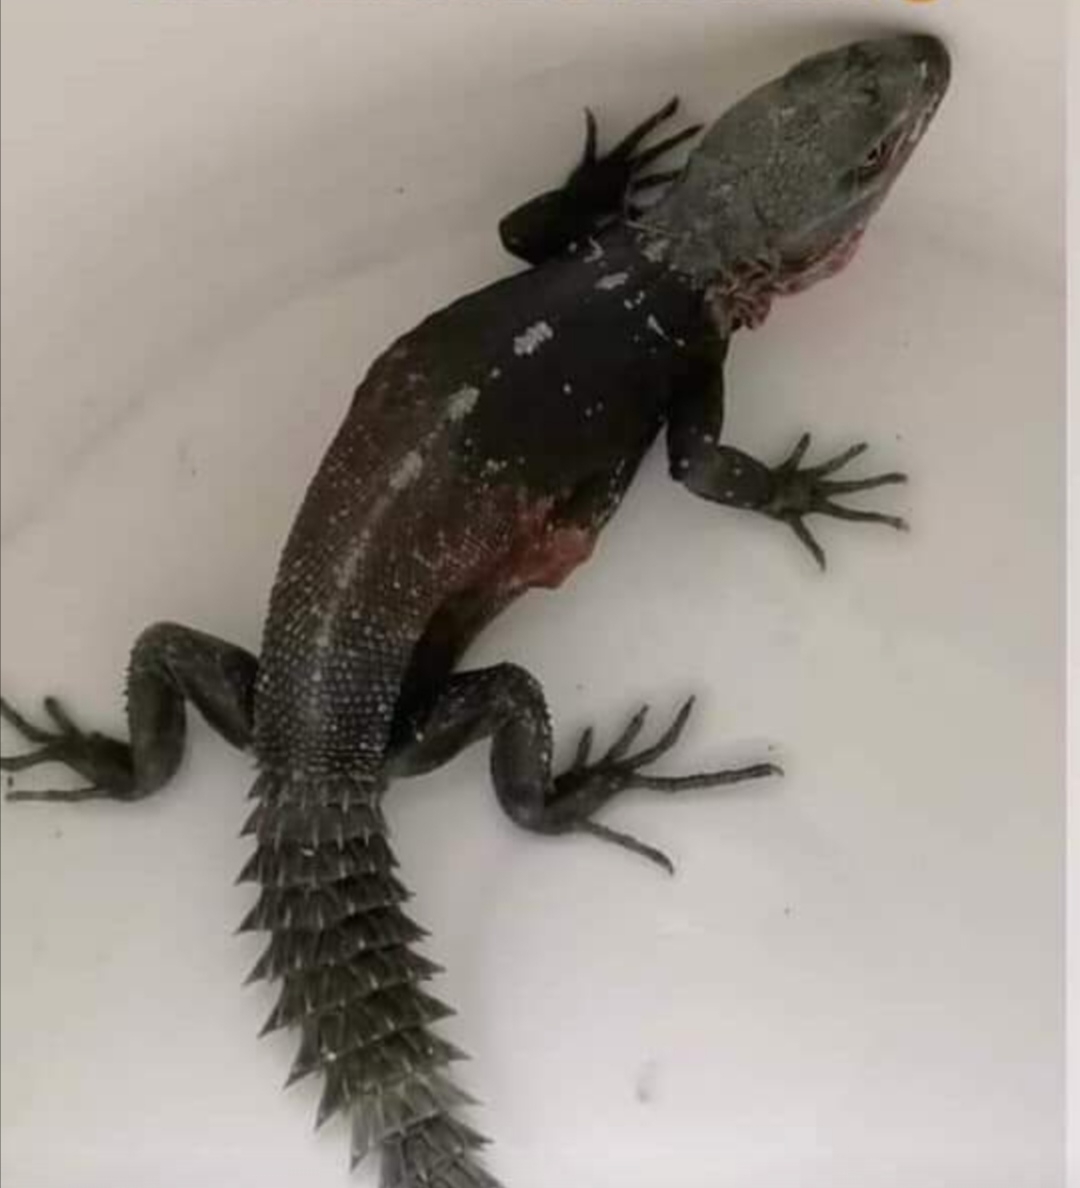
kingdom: Animalia
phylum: Chordata
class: Squamata
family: Iguanidae
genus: Cachryx
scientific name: Cachryx defensor
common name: Yucatán spinytail iguana
